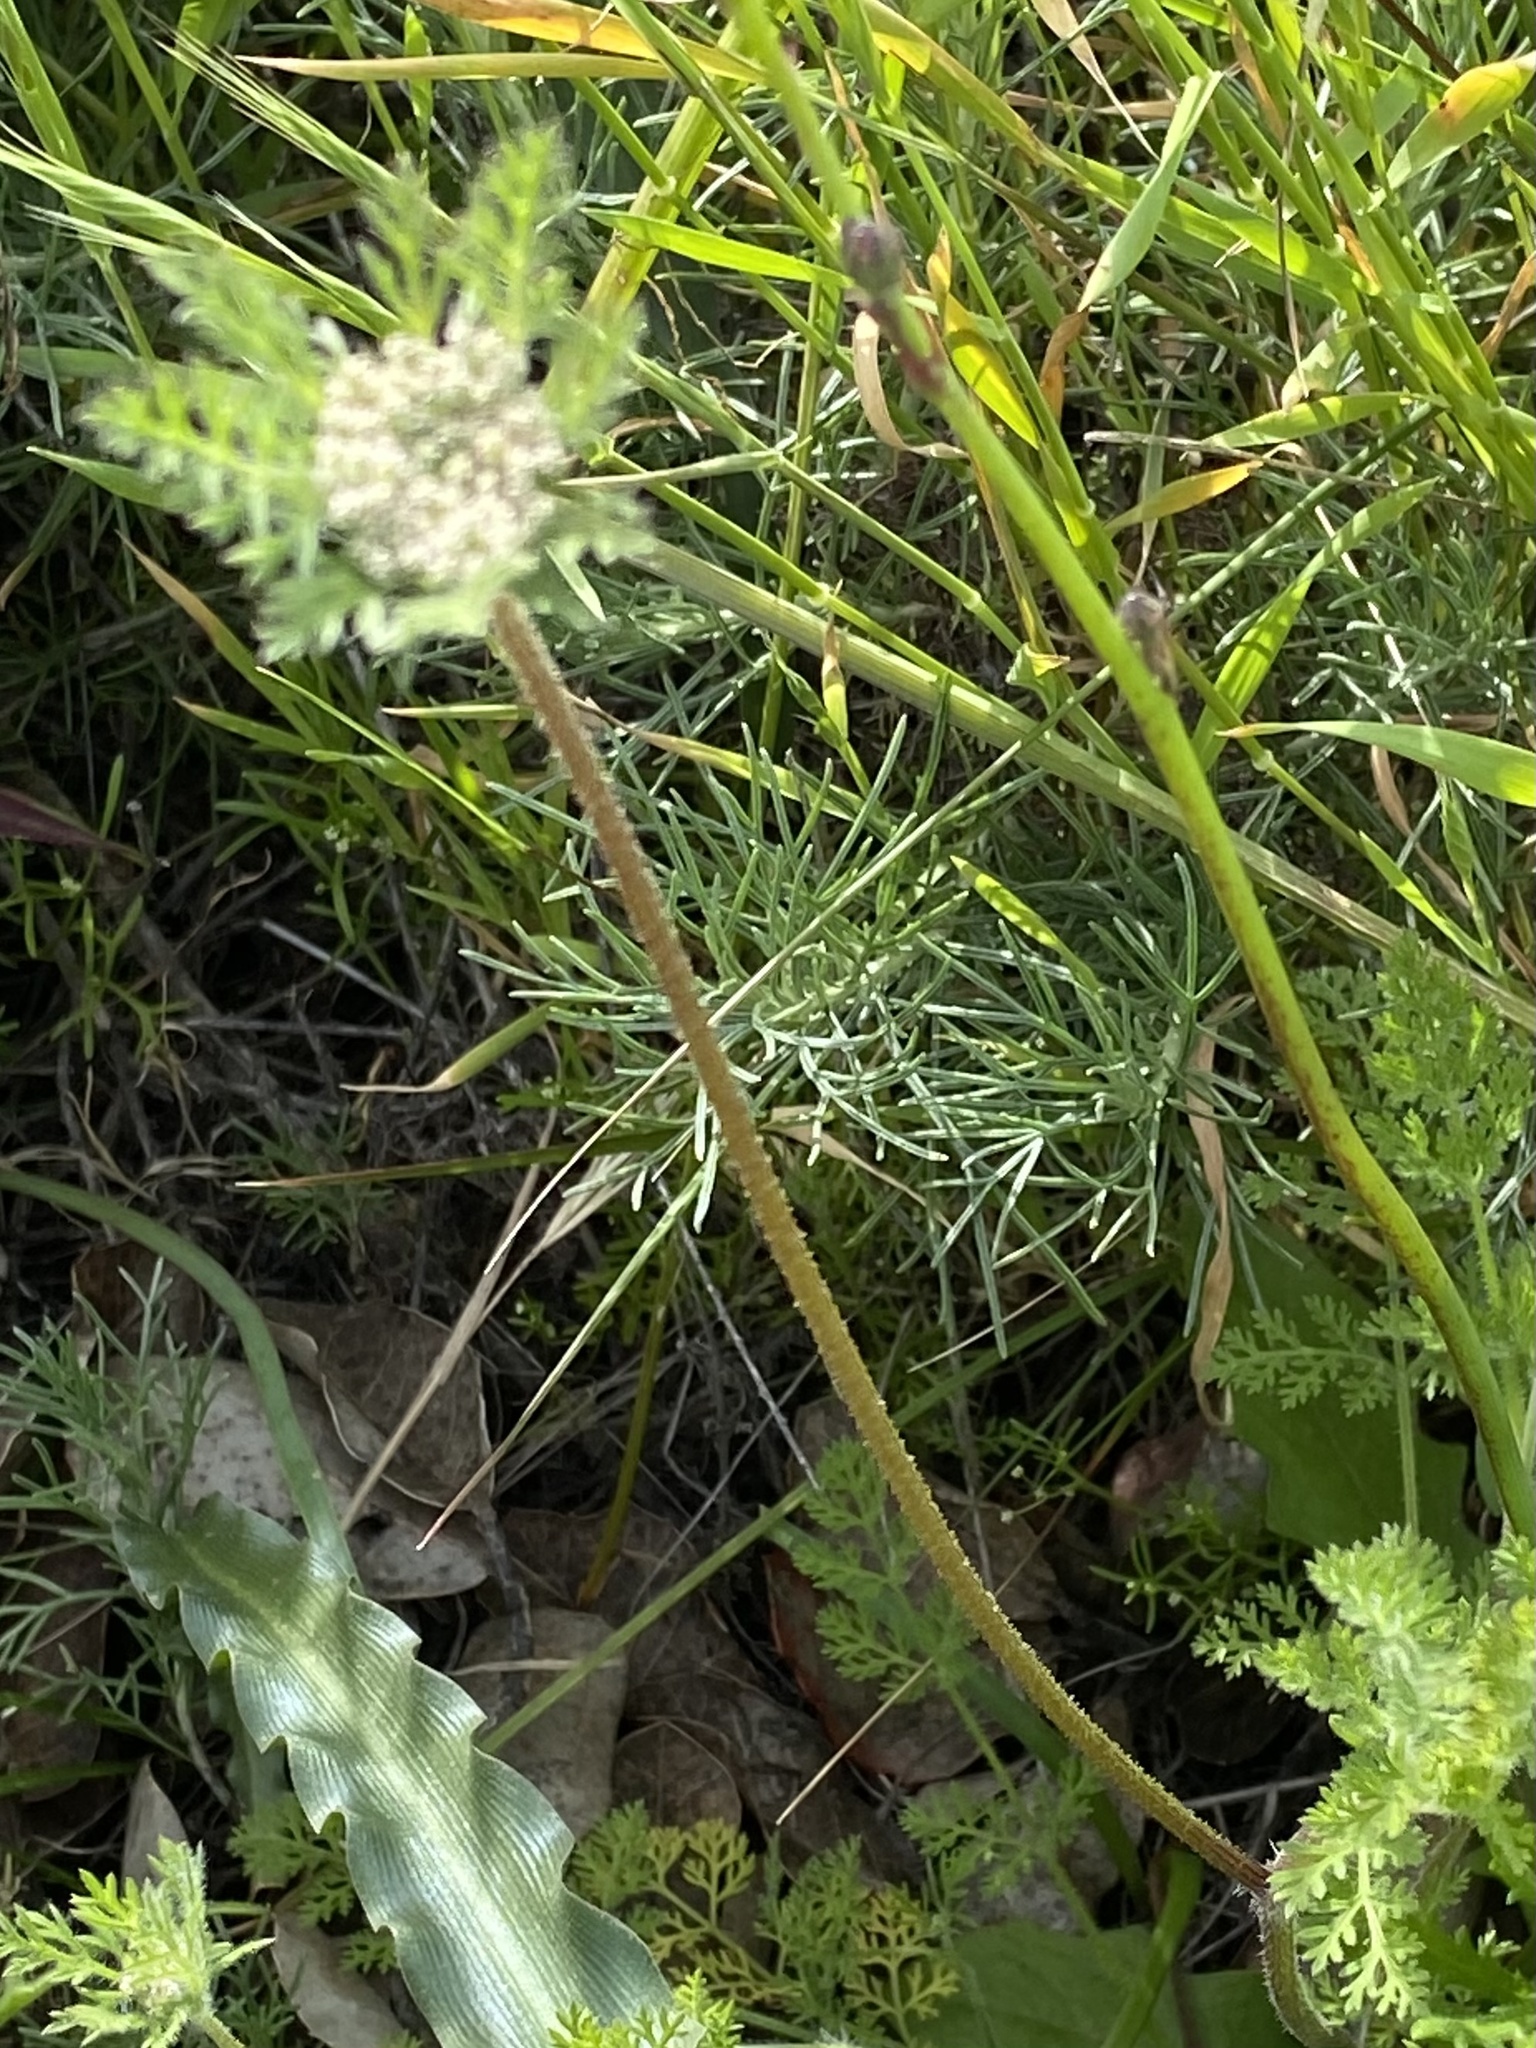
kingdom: Plantae
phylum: Tracheophyta
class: Magnoliopsida
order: Apiales
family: Apiaceae
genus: Daucus
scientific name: Daucus pusillus
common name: Southwest wild carrot
